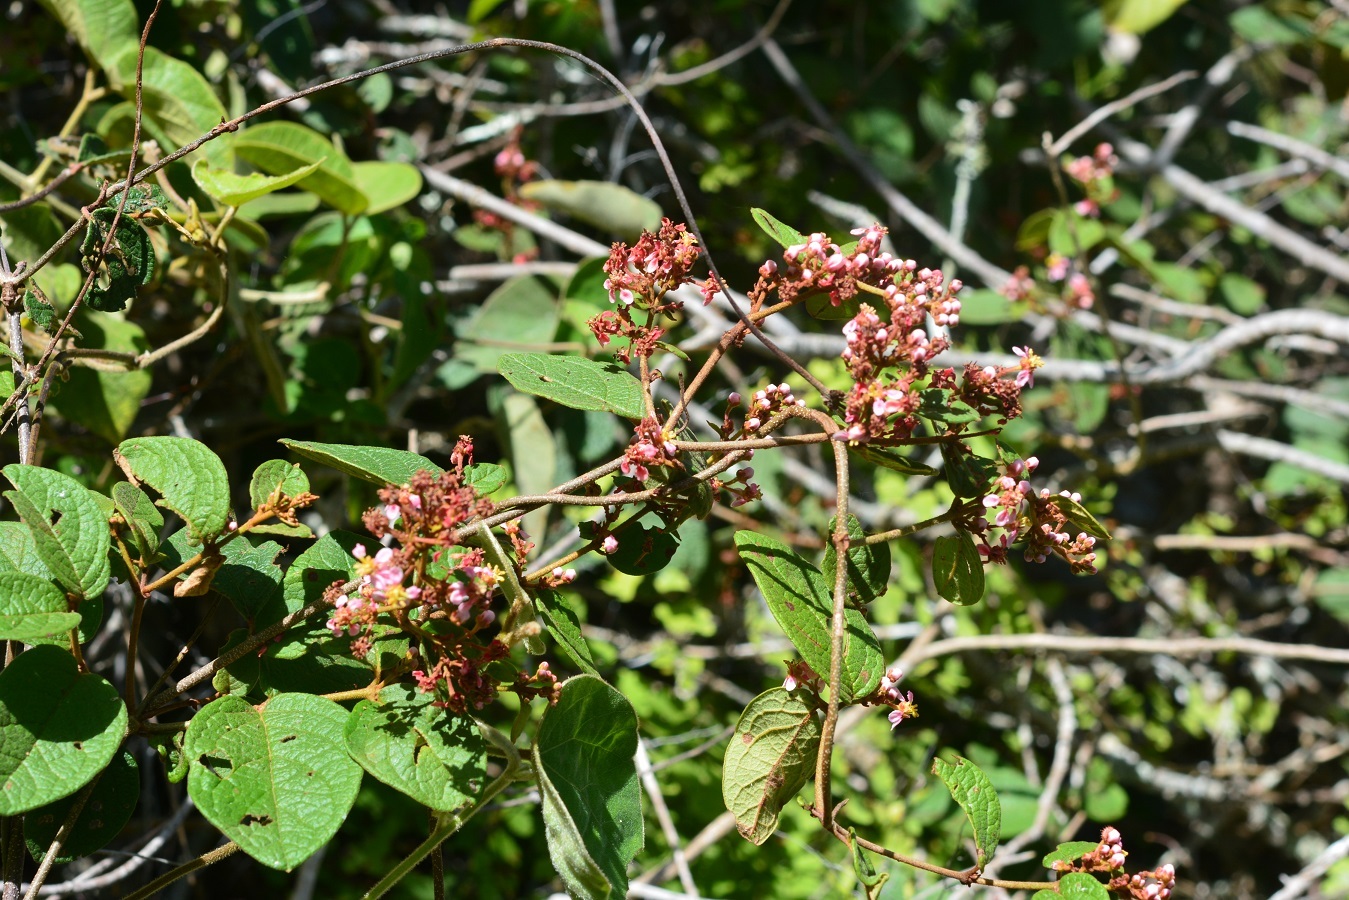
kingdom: Plantae
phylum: Tracheophyta
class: Magnoliopsida
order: Malpighiales
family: Malpighiaceae
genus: Heteropterys
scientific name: Heteropterys brachiata
